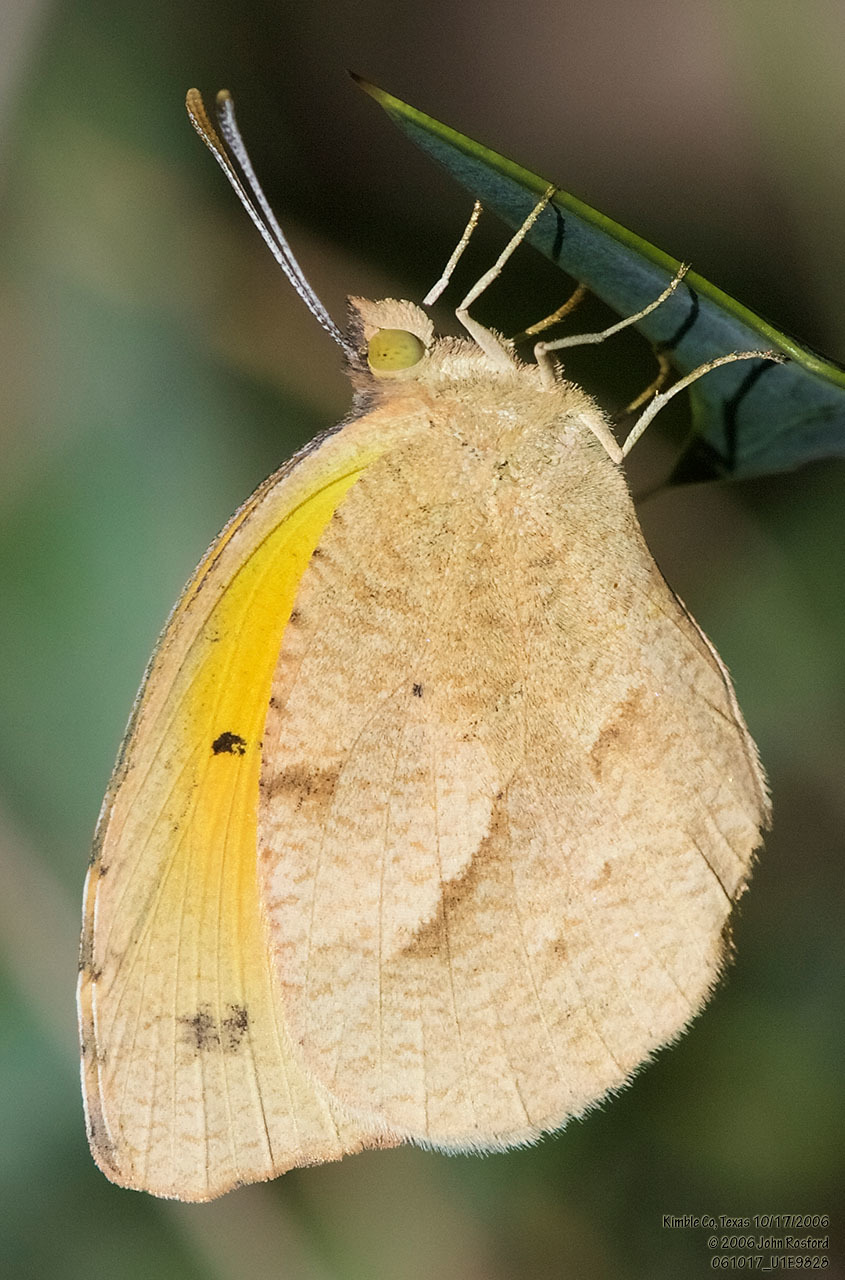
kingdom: Animalia
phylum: Arthropoda
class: Insecta
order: Lepidoptera
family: Pieridae
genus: Abaeis
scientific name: Abaeis nicippe
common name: Sleepy orange
